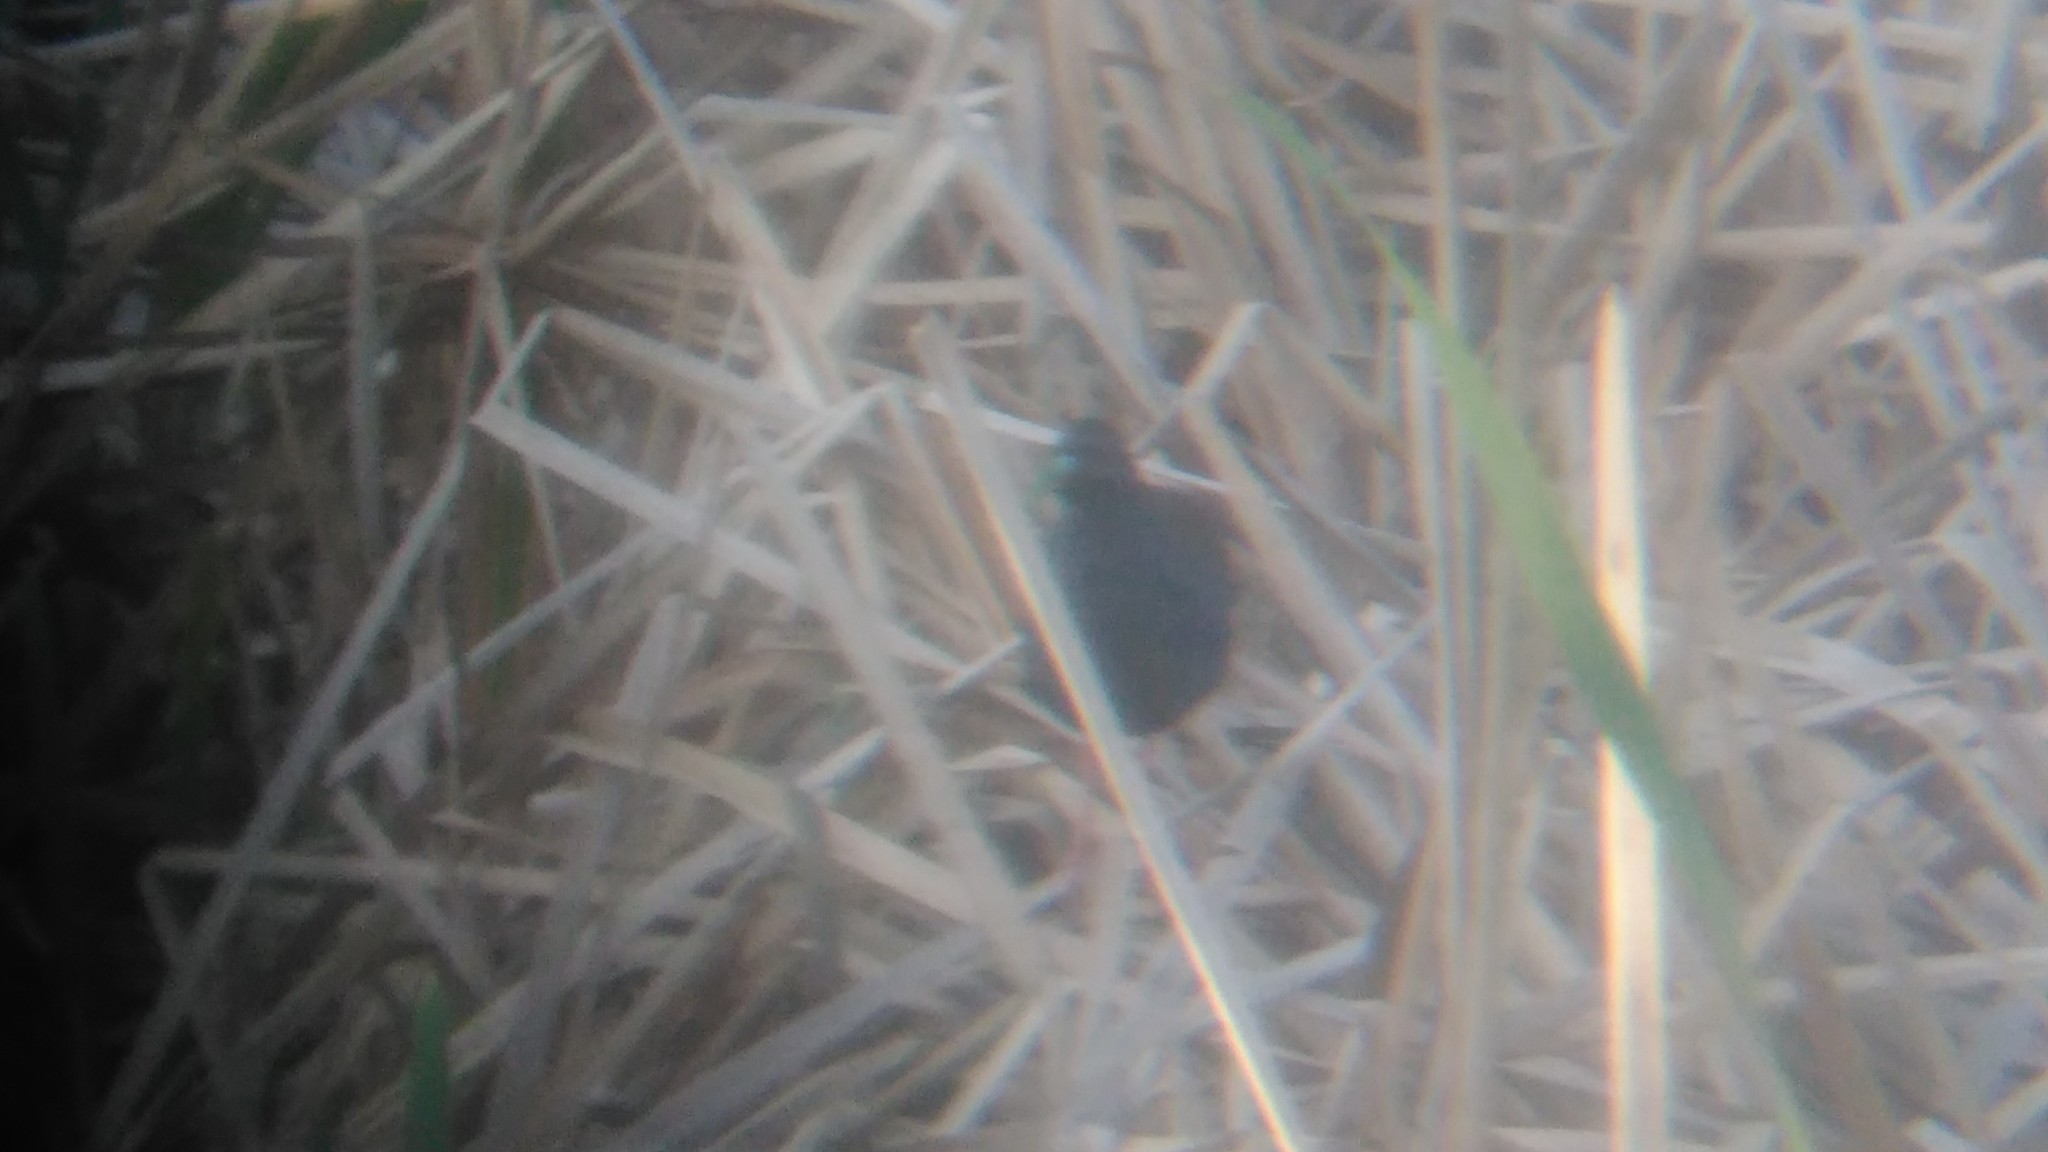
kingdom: Animalia
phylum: Chordata
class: Aves
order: Gruiformes
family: Rallidae
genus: Pardirallus
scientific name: Pardirallus sanguinolentus
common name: Plumbeous rail
